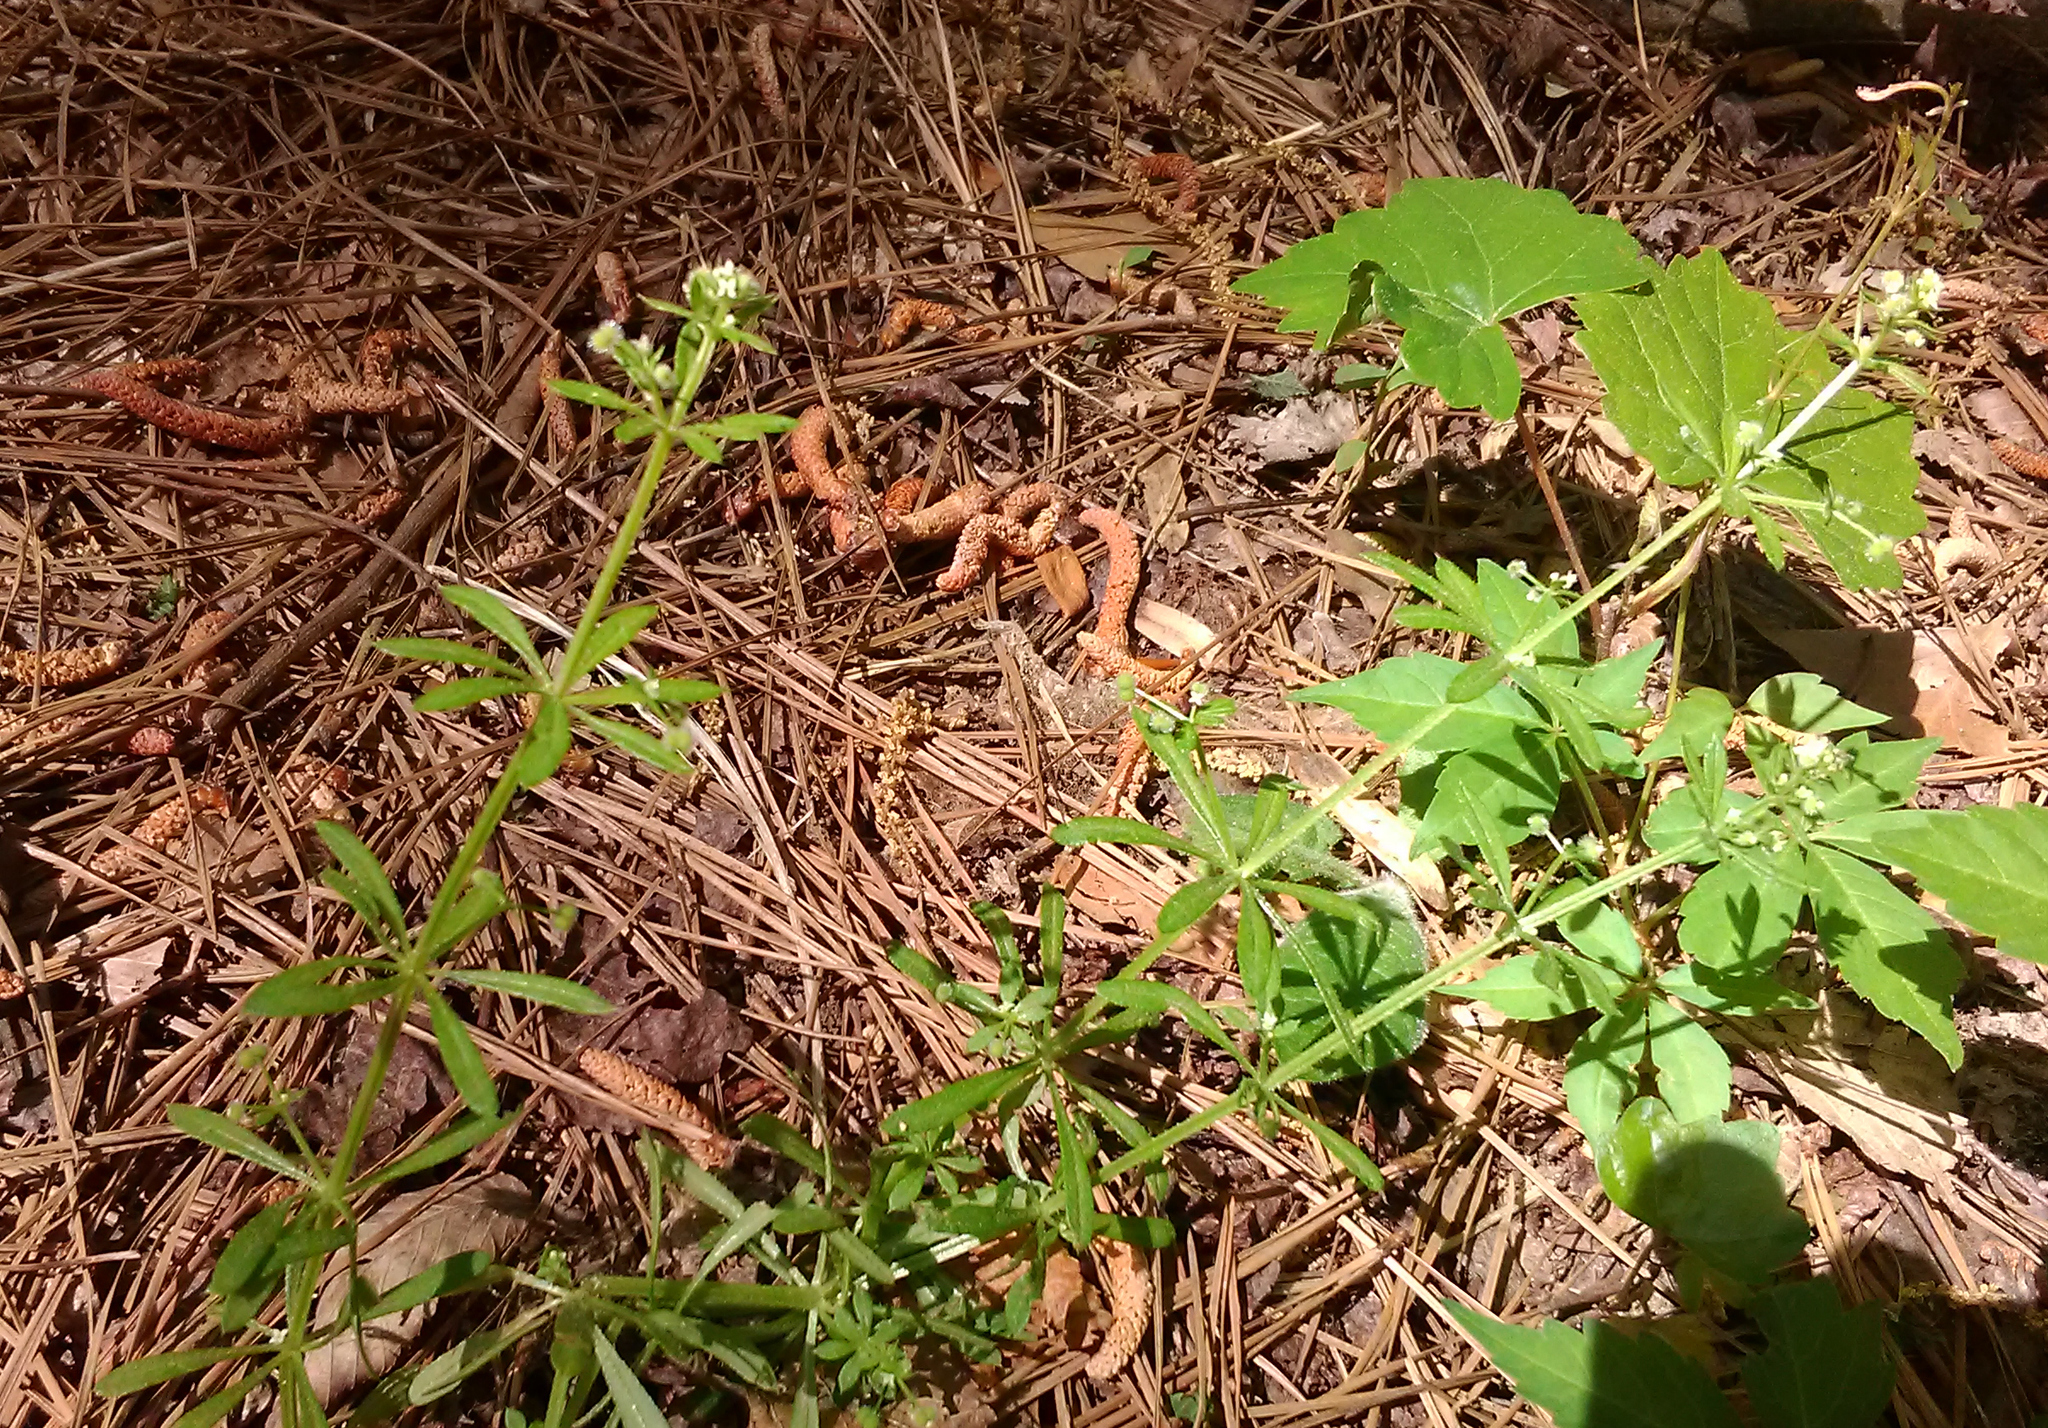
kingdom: Plantae
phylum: Tracheophyta
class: Magnoliopsida
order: Gentianales
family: Rubiaceae
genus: Galium
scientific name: Galium aparine
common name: Cleavers
